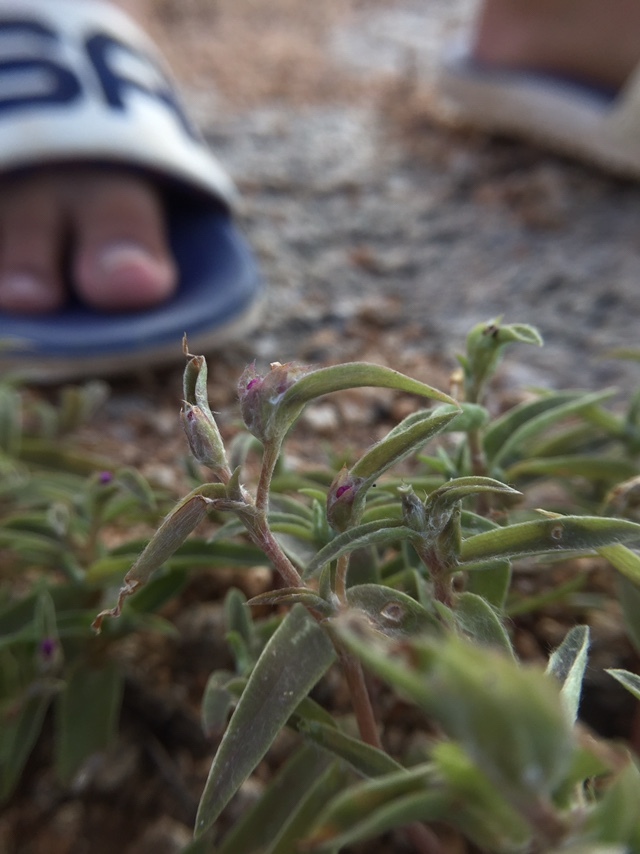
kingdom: Plantae
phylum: Tracheophyta
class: Liliopsida
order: Commelinales
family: Commelinaceae
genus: Cyanotis
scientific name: Cyanotis fasciculata
